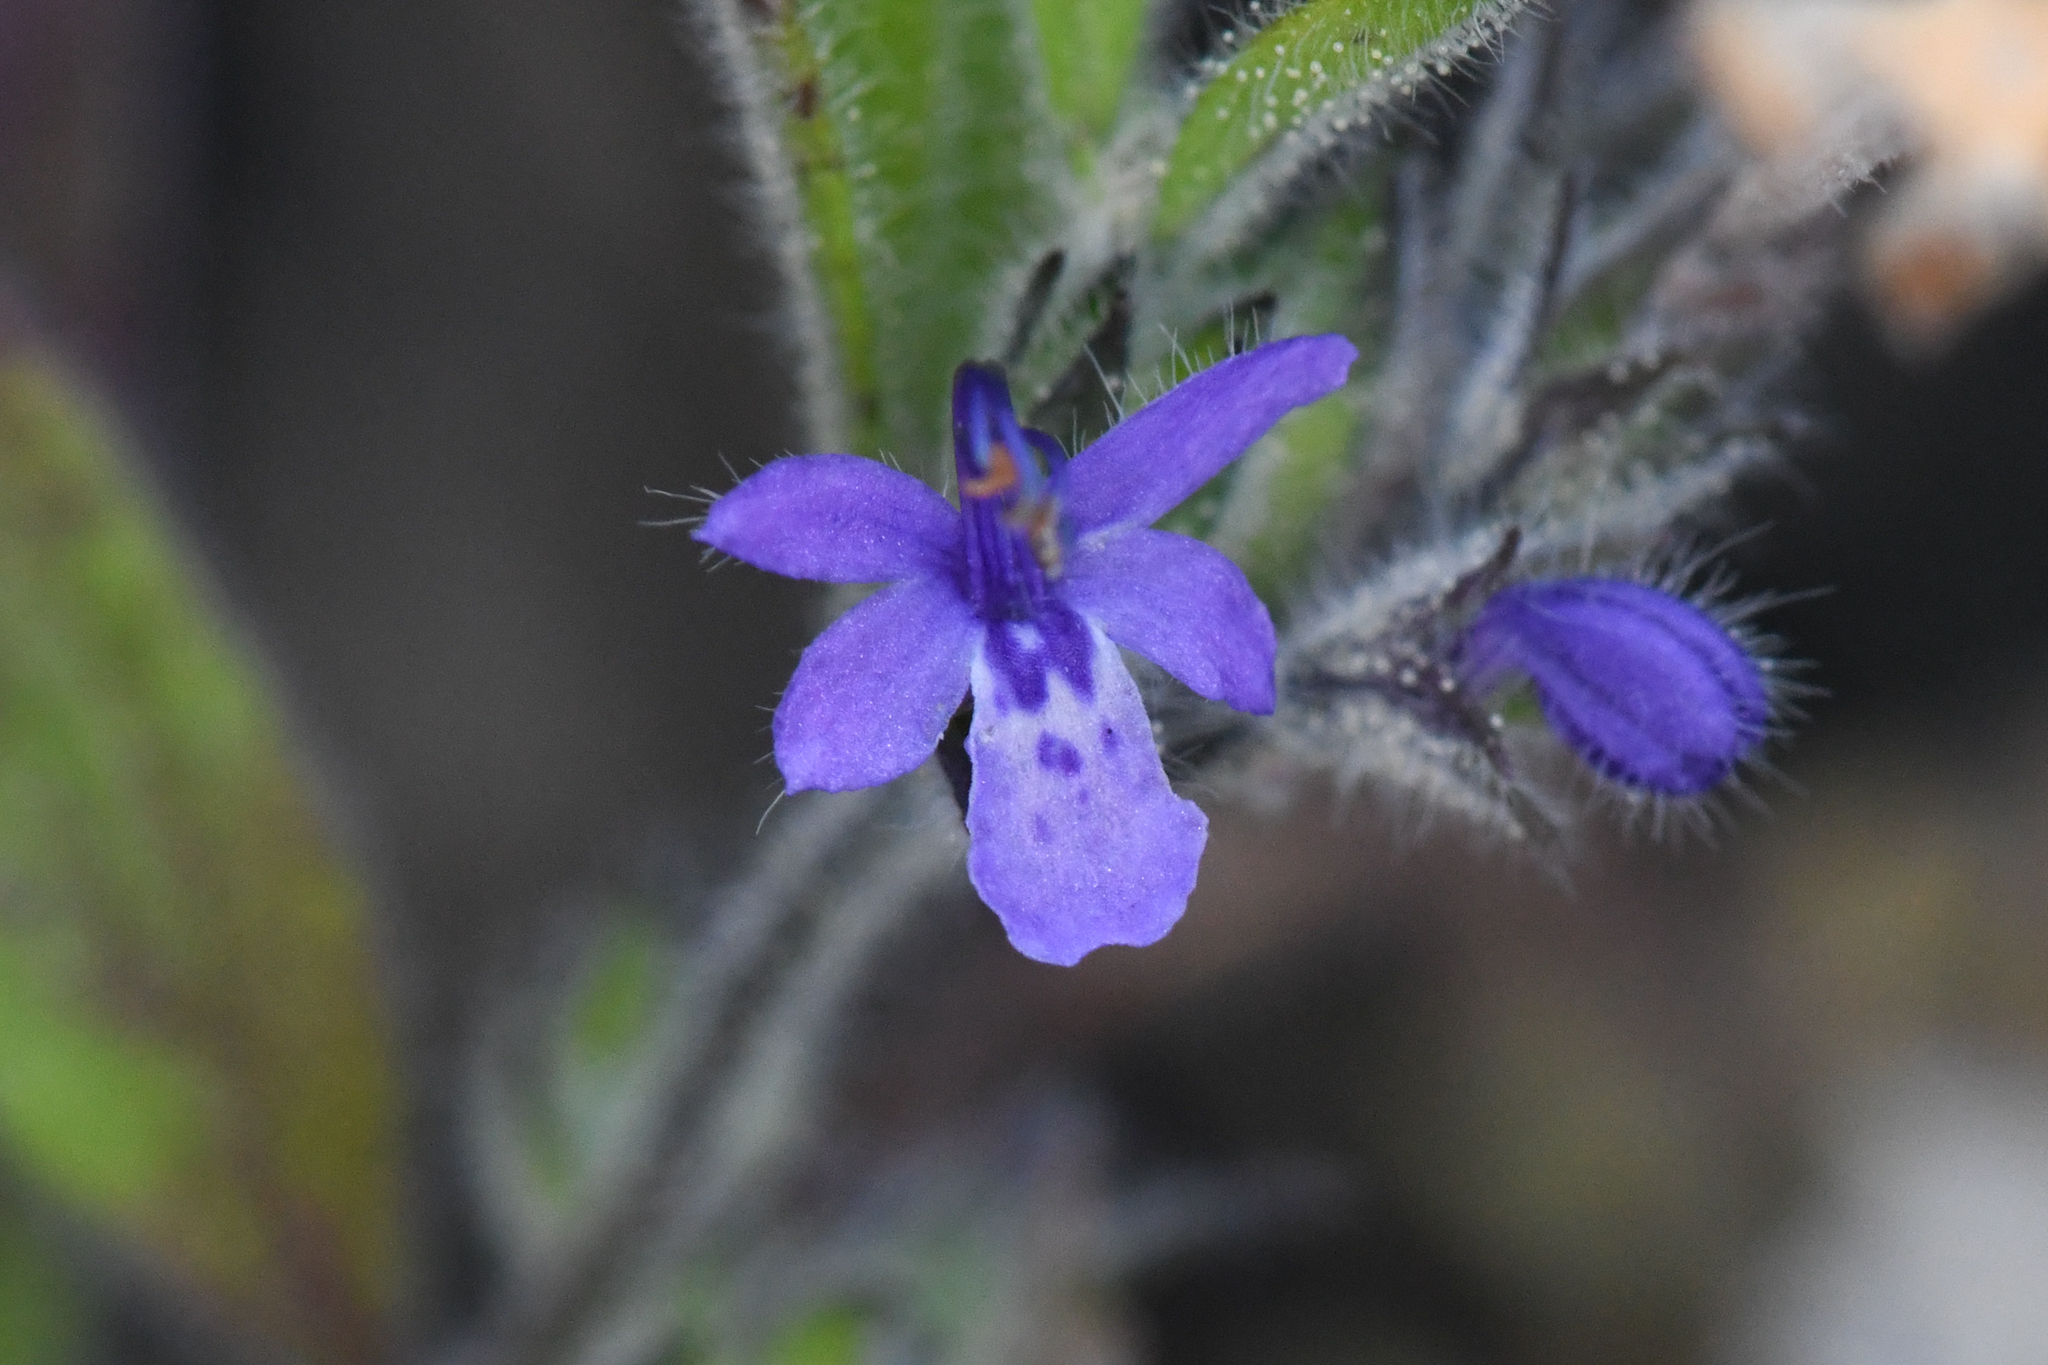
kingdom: Plantae
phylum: Tracheophyta
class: Magnoliopsida
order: Lamiales
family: Lamiaceae
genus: Trichostema
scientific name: Trichostema austromontanum
